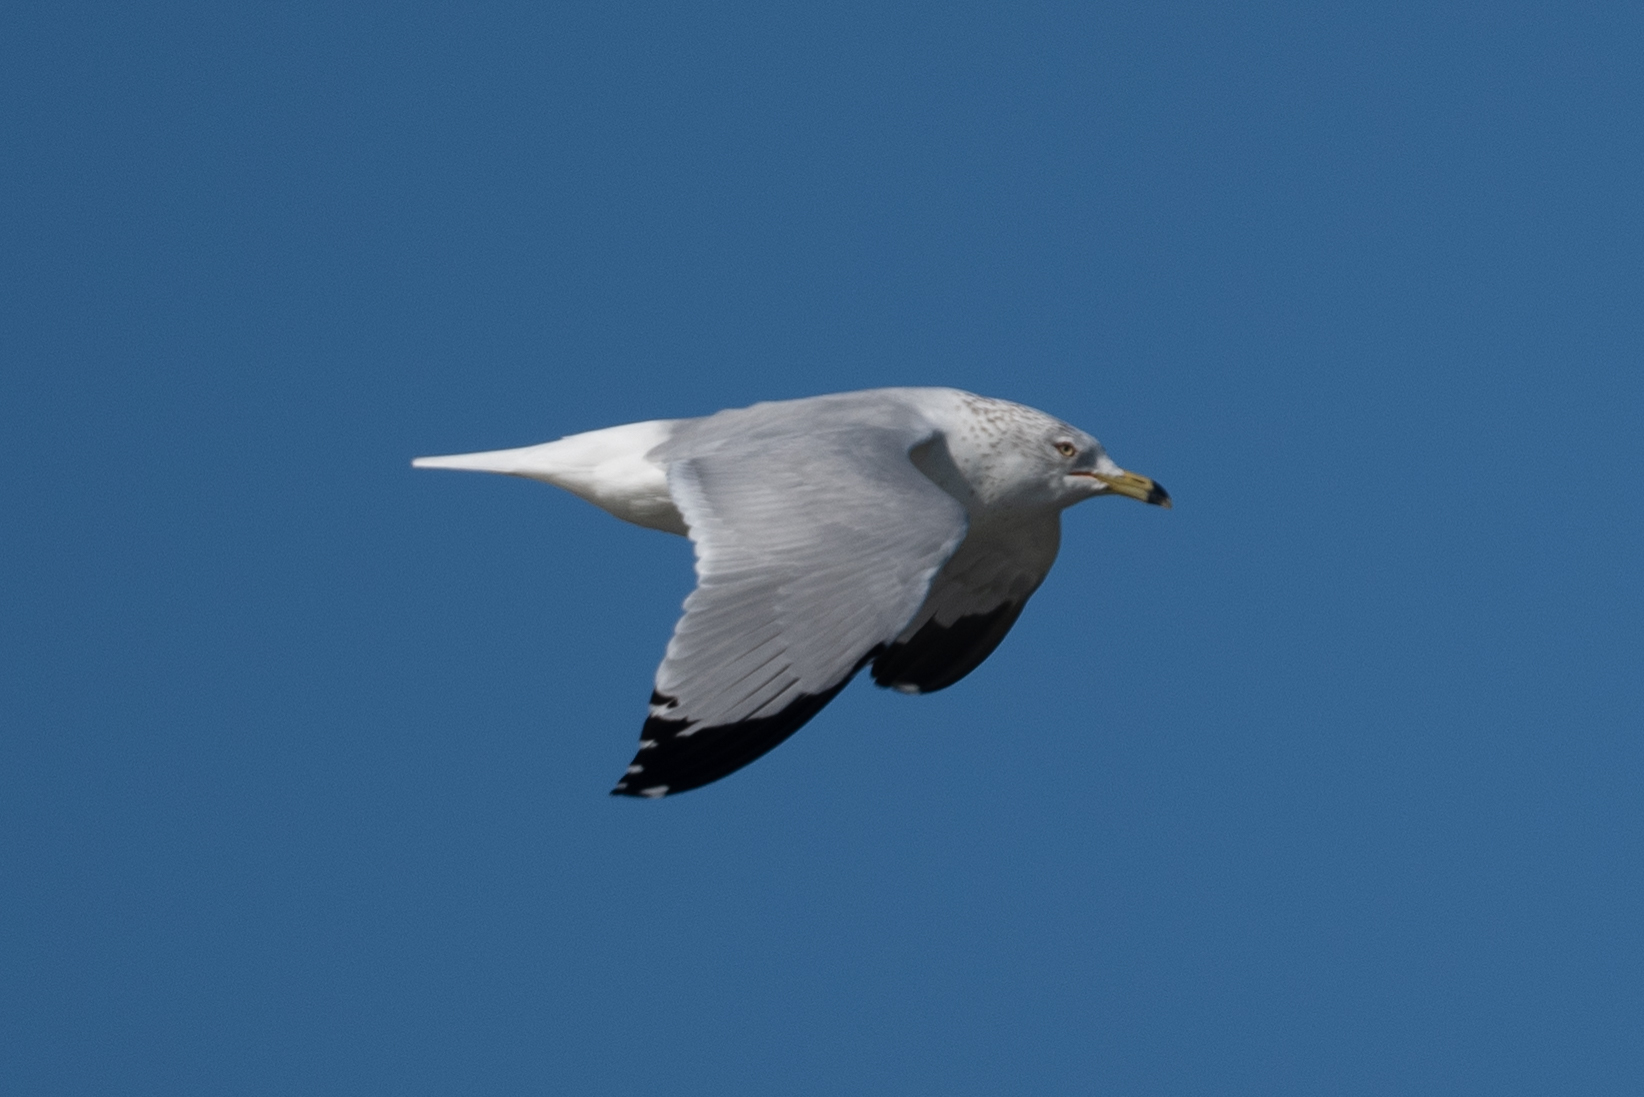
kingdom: Animalia
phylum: Chordata
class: Aves
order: Charadriiformes
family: Laridae
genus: Larus
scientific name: Larus delawarensis
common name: Ring-billed gull
